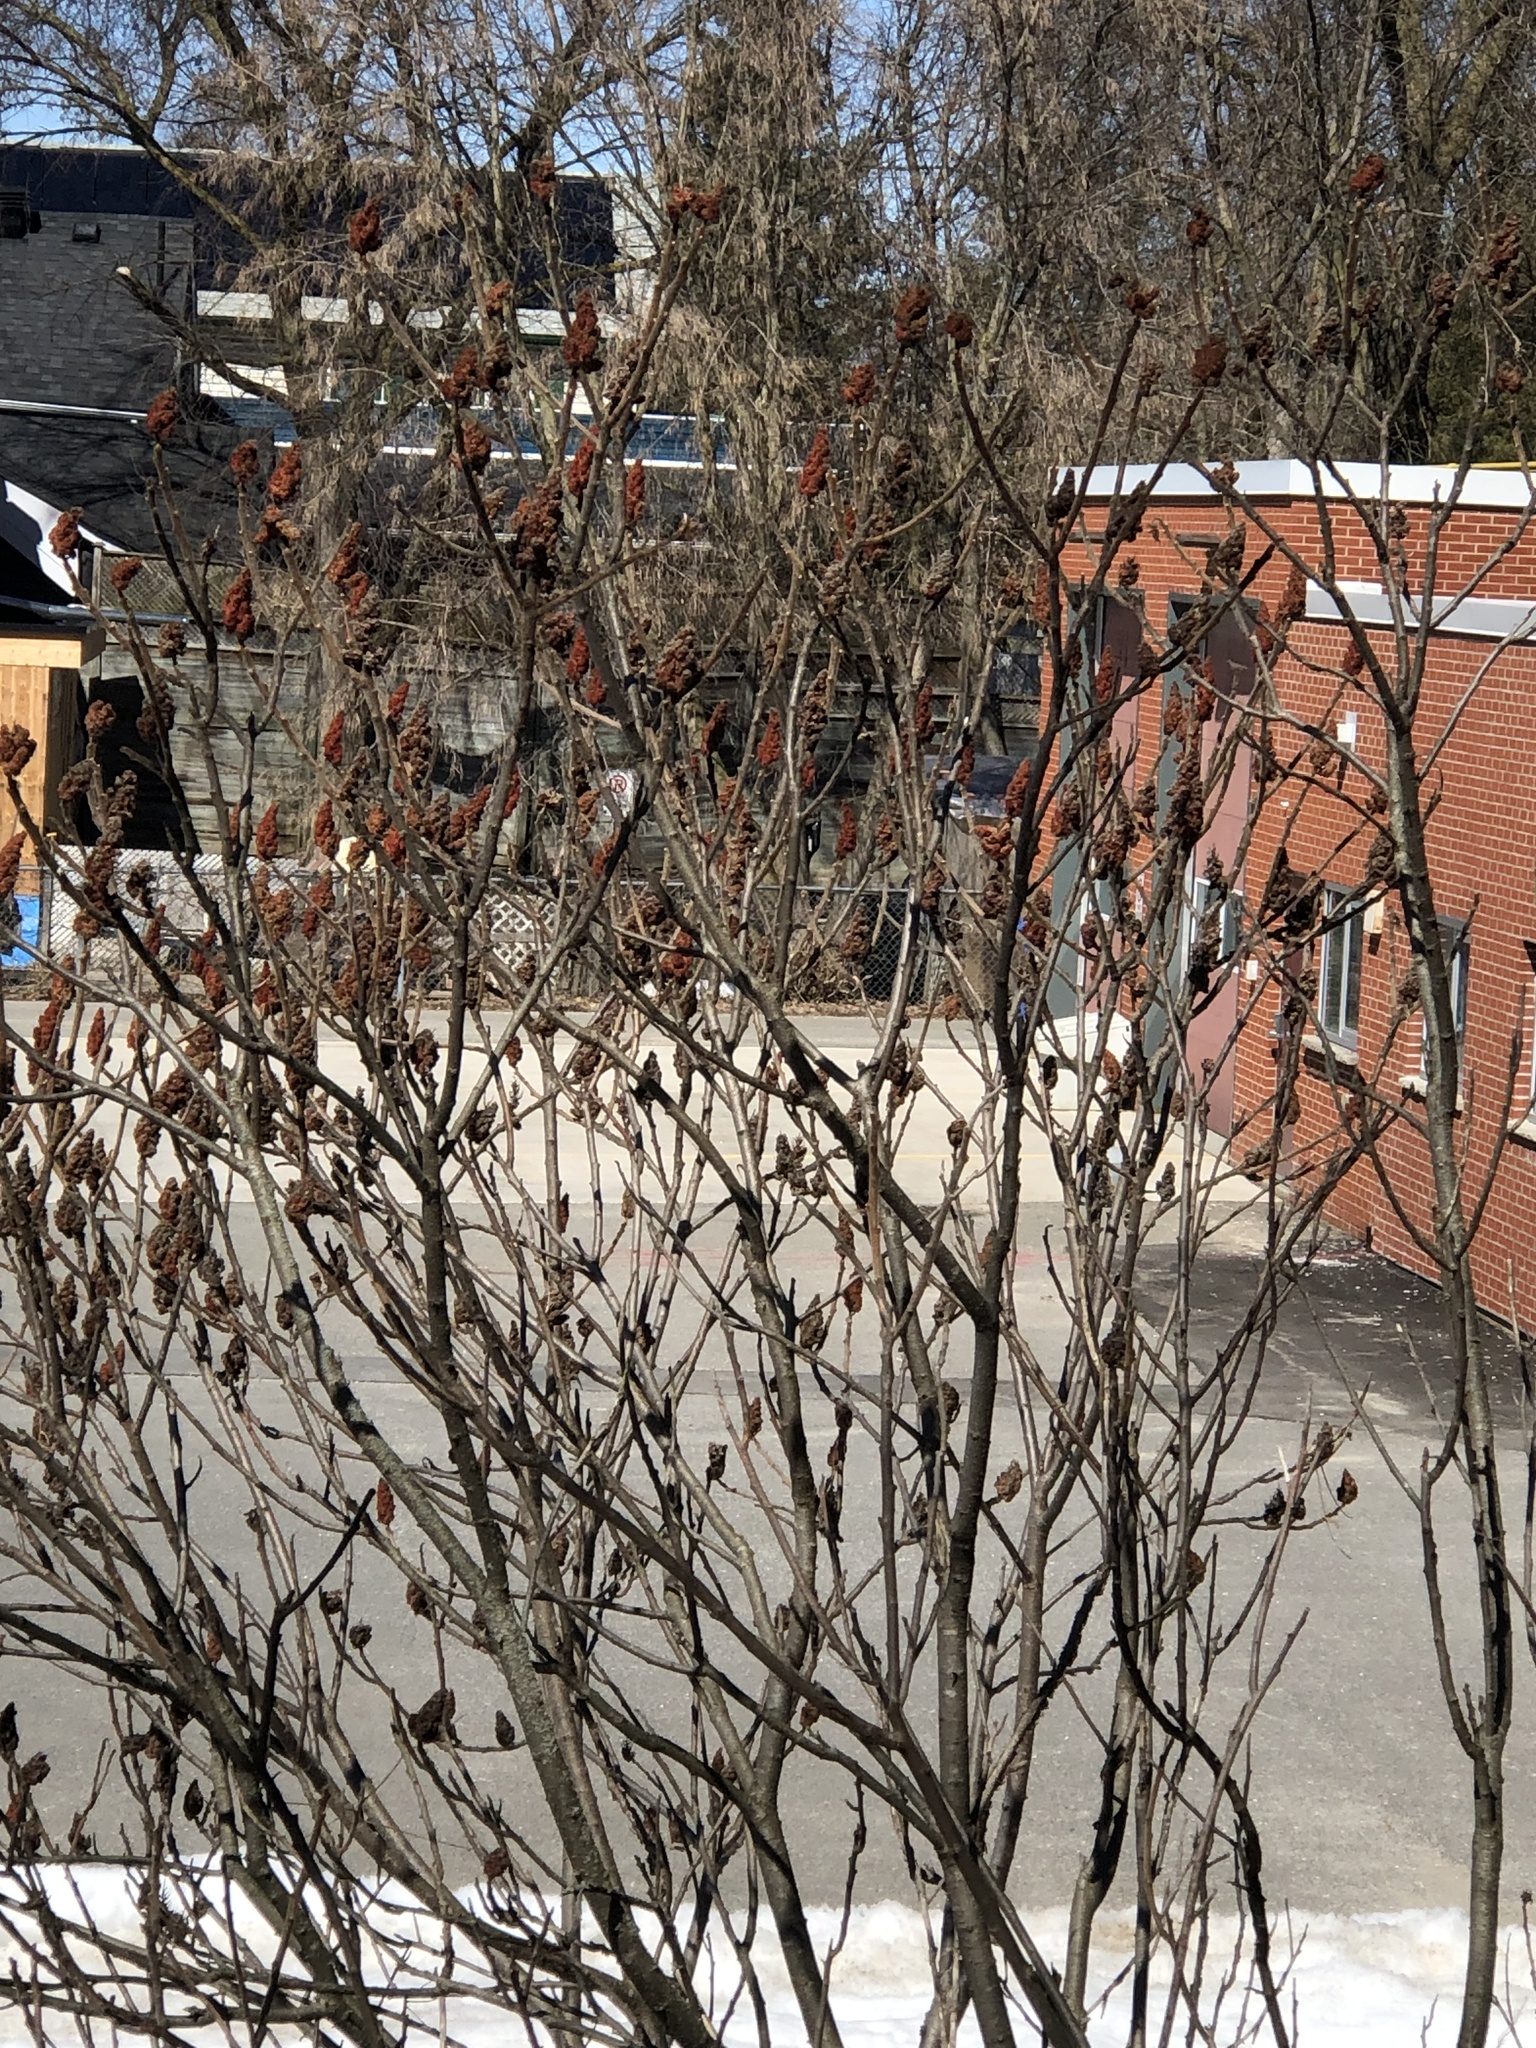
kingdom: Plantae
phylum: Tracheophyta
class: Magnoliopsida
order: Sapindales
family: Anacardiaceae
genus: Rhus
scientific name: Rhus typhina
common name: Staghorn sumac
